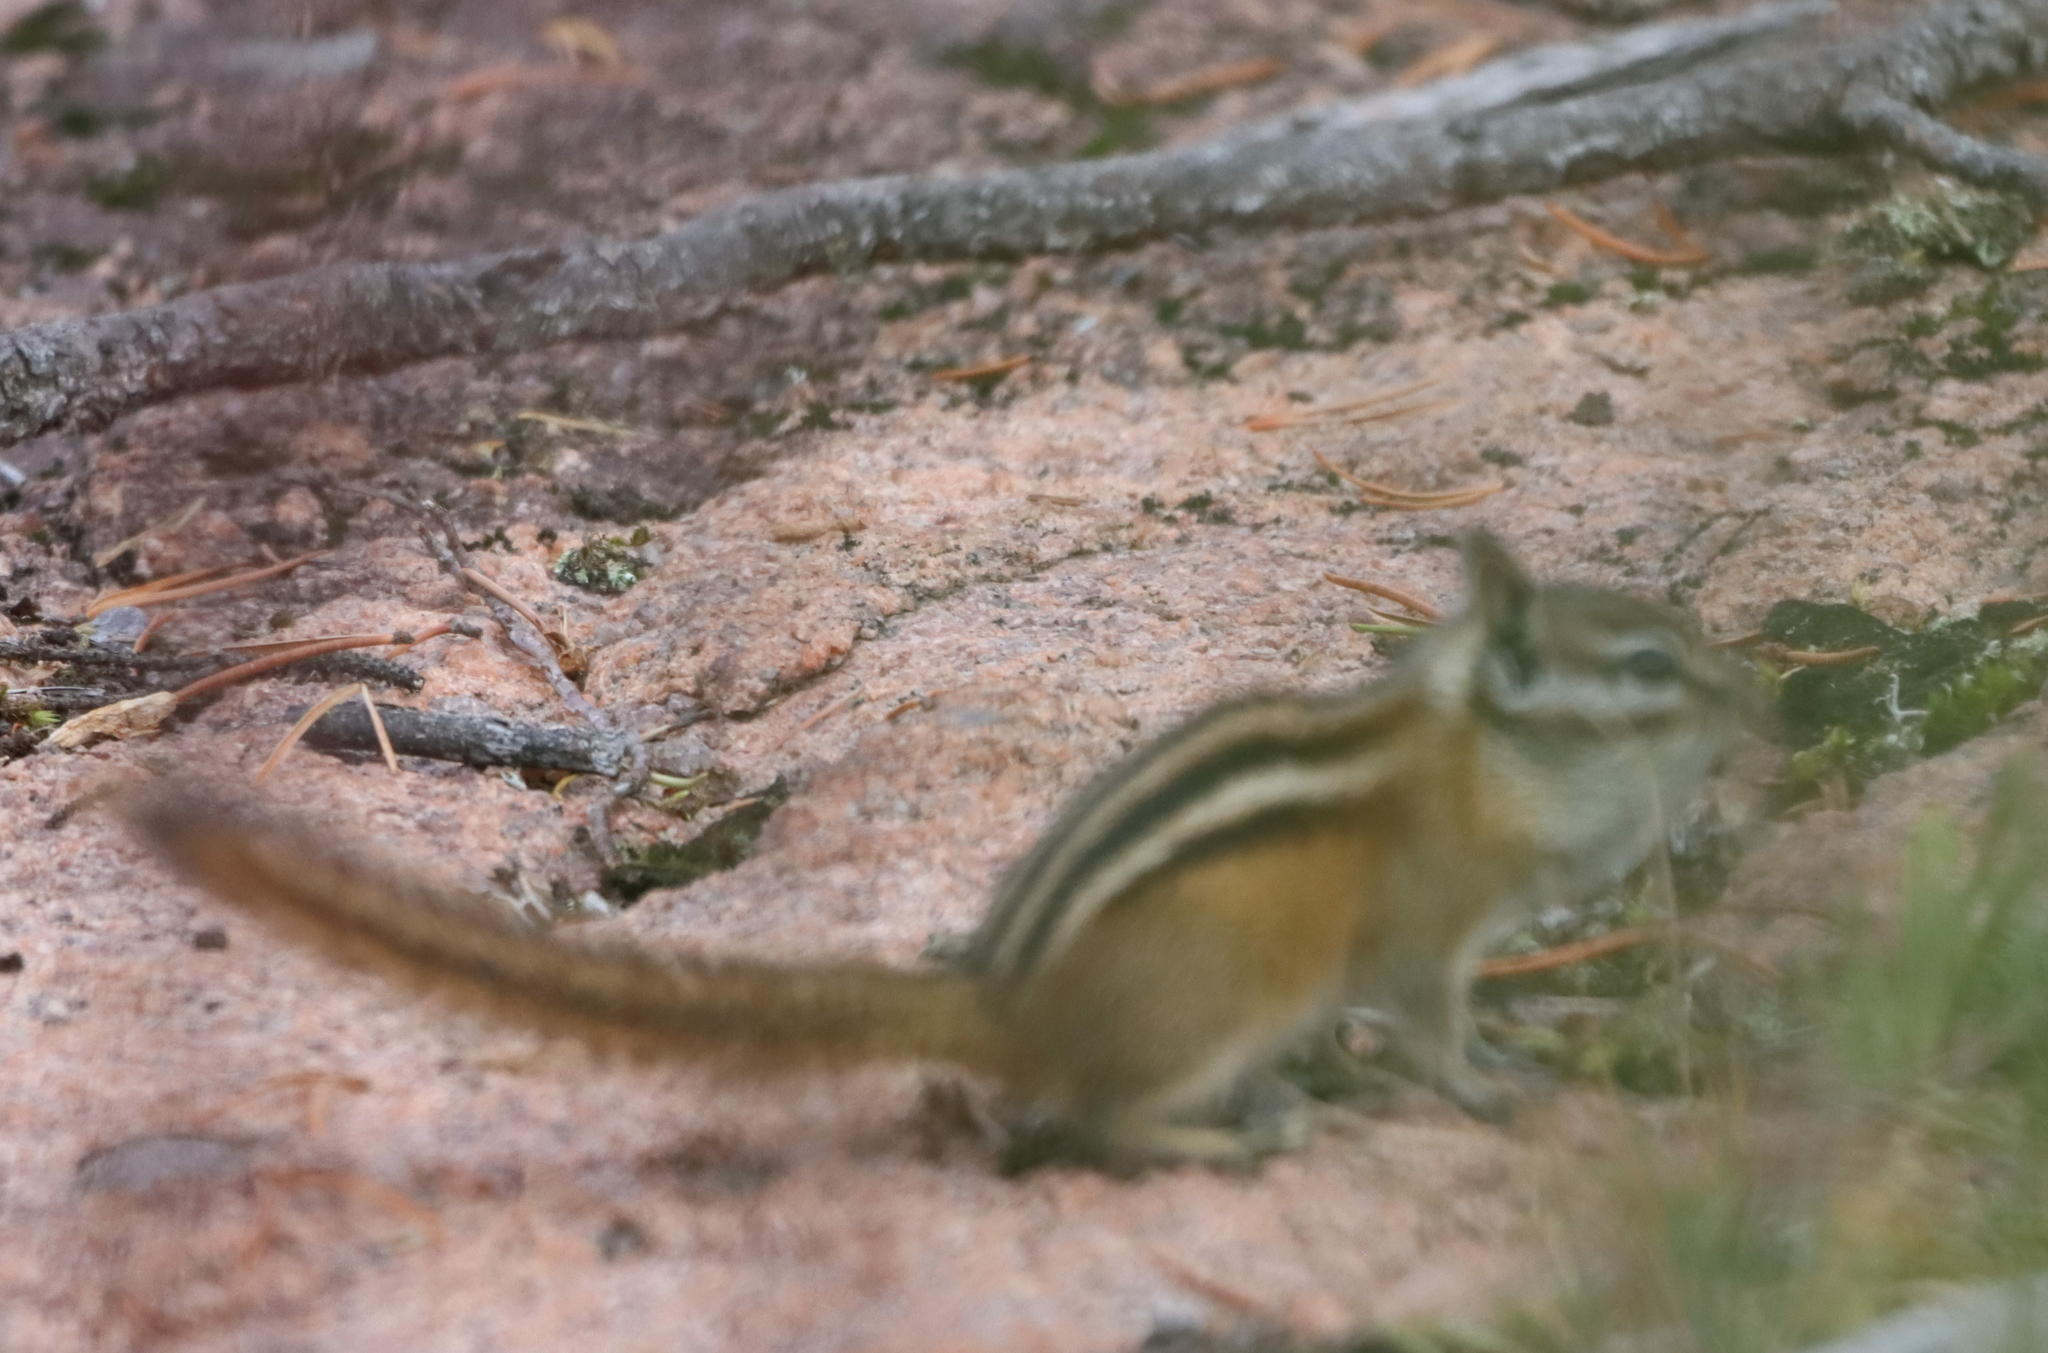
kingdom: Animalia
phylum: Chordata
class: Mammalia
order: Rodentia
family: Sciuridae
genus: Tamias
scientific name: Tamias minimus
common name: Least chipmunk
